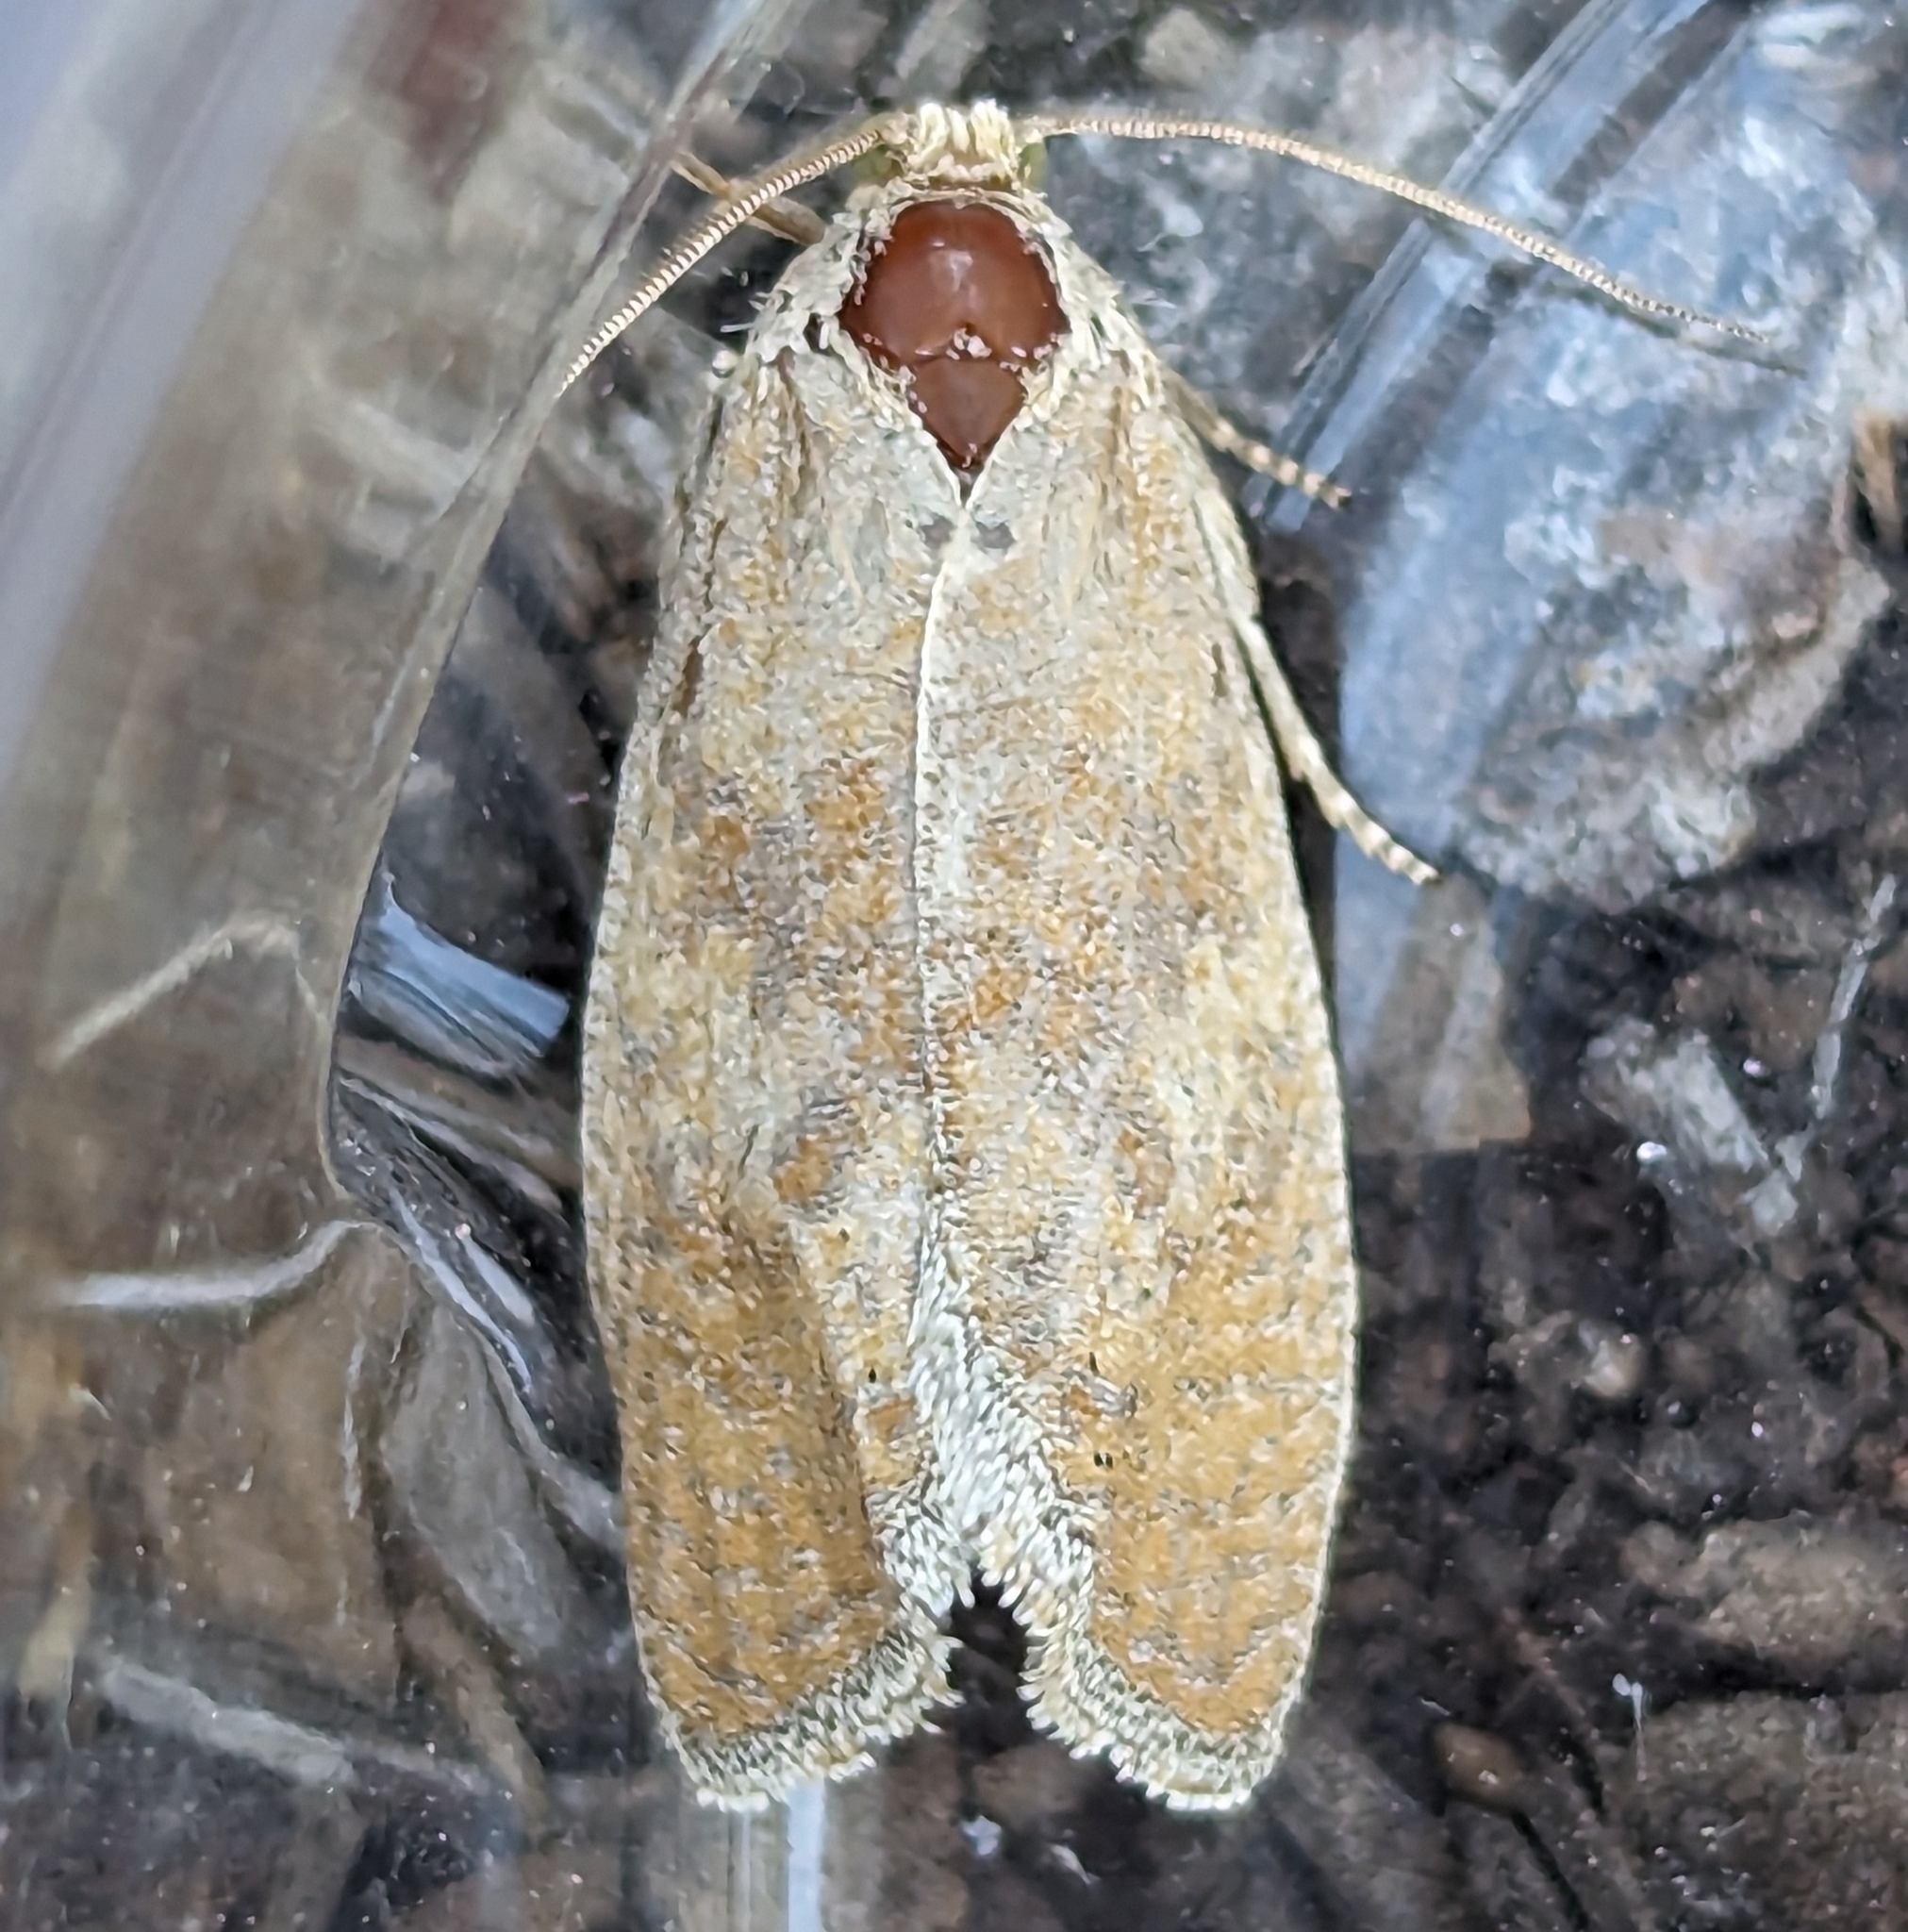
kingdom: Animalia
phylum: Arthropoda
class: Insecta
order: Lepidoptera
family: Tortricidae
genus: Pelochrista
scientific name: Pelochrista subflavana
